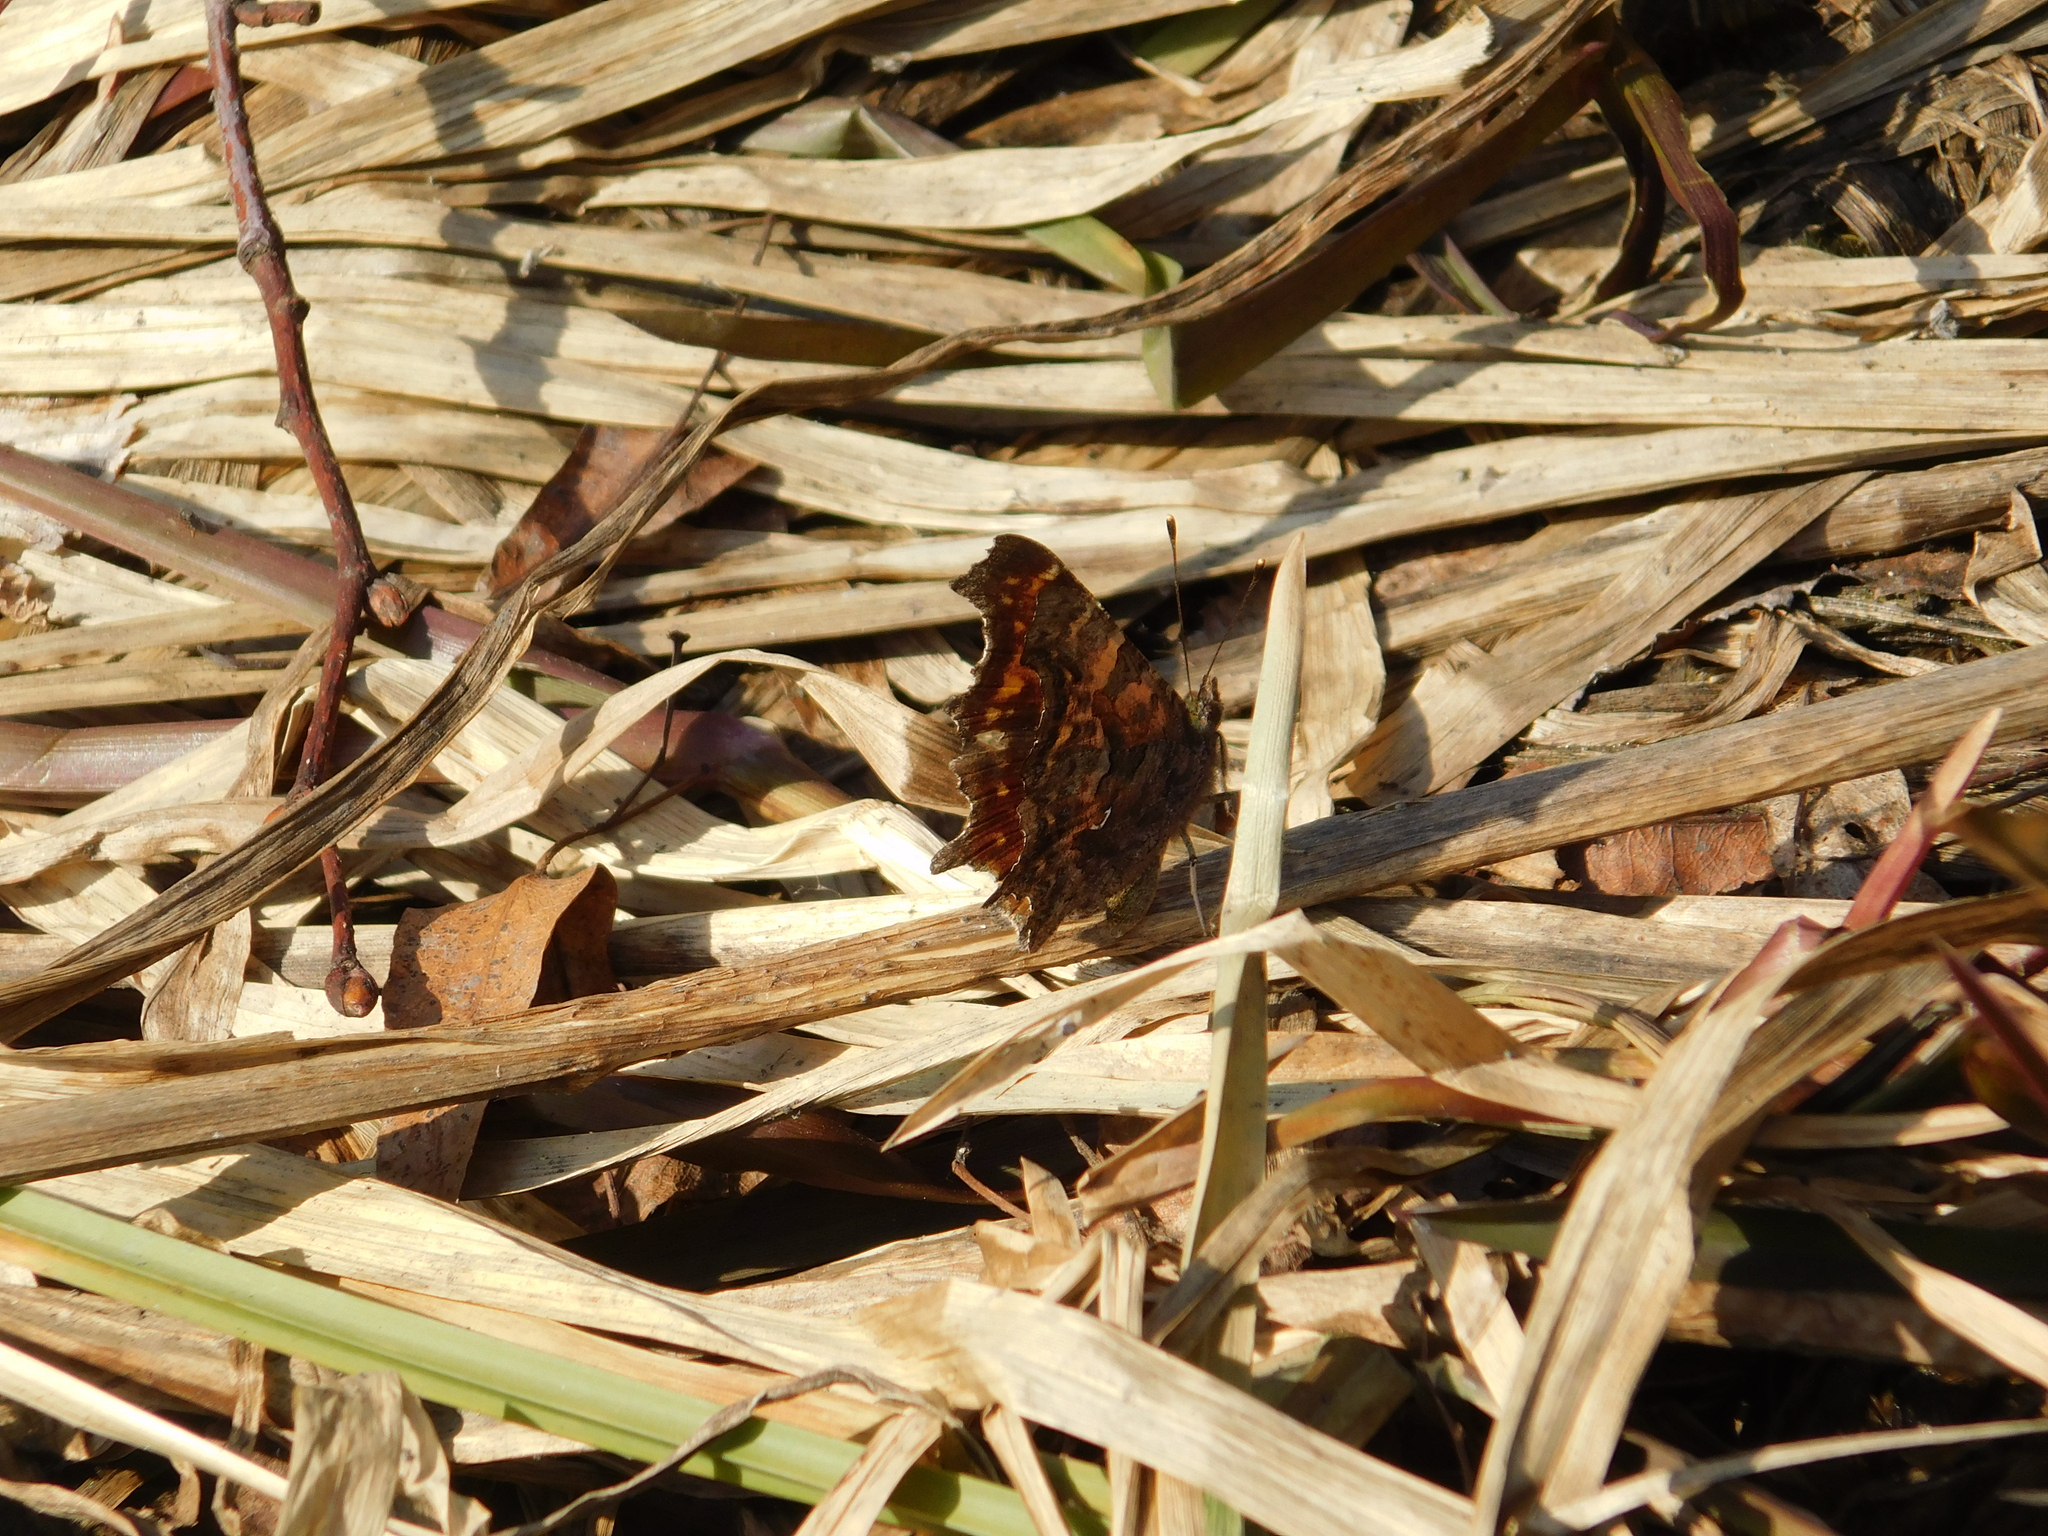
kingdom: Animalia
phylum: Arthropoda
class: Insecta
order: Lepidoptera
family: Nymphalidae
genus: Polygonia
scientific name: Polygonia c-album
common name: Comma
